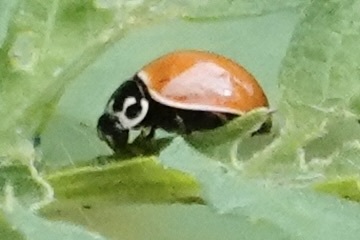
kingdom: Animalia
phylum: Arthropoda
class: Insecta
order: Coleoptera
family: Coccinellidae
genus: Cycloneda
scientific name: Cycloneda munda
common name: Polished lady beetle
